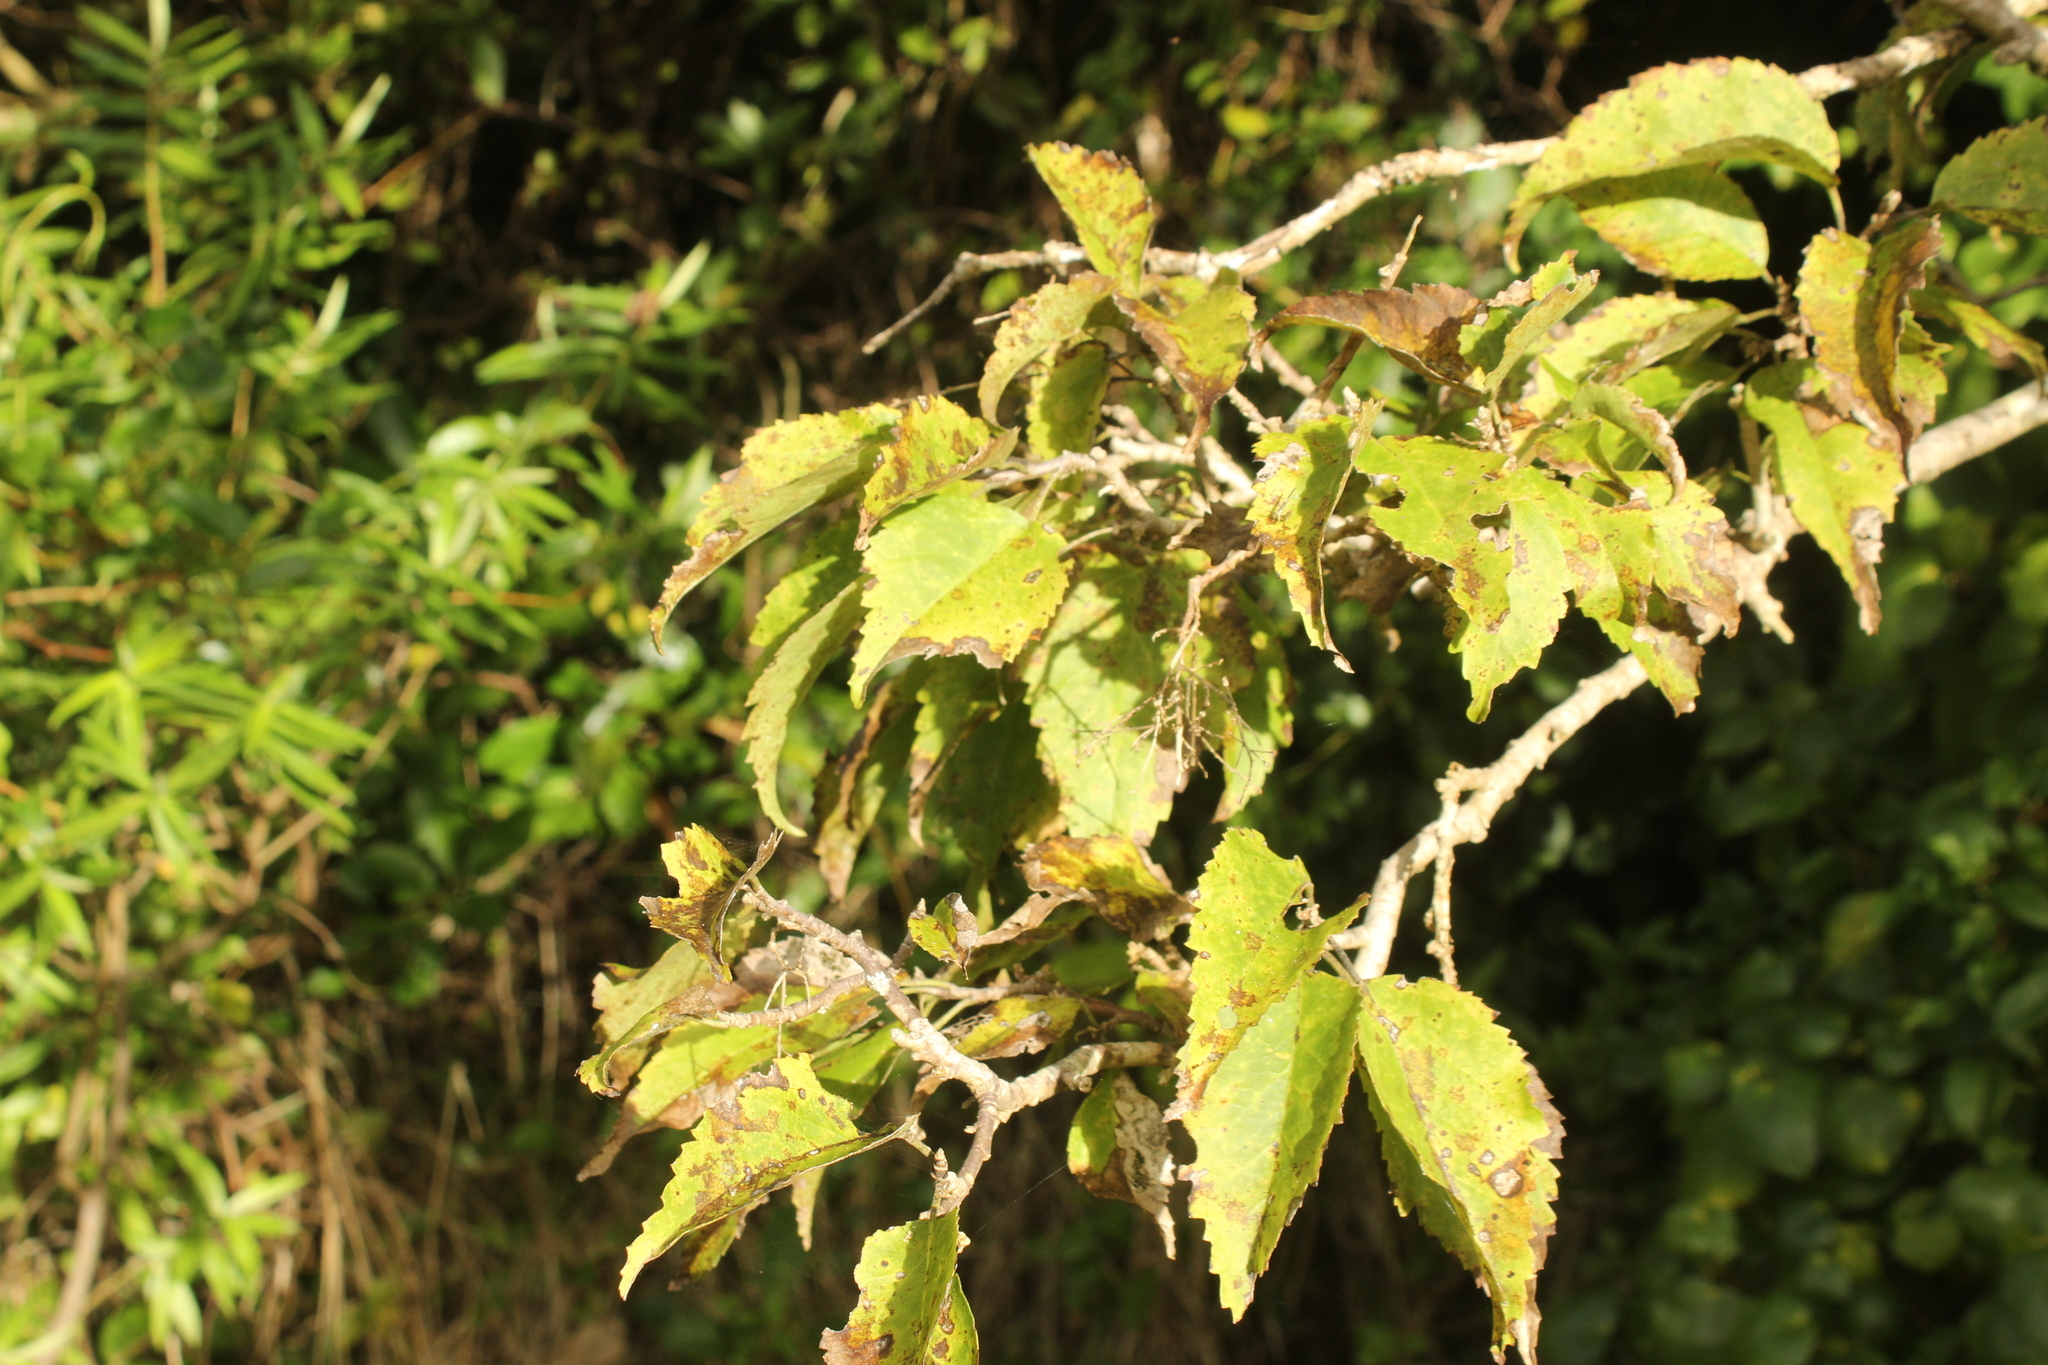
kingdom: Plantae
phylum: Tracheophyta
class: Magnoliopsida
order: Malvales
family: Malvaceae
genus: Plagianthus
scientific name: Plagianthus regius
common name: Manatu
